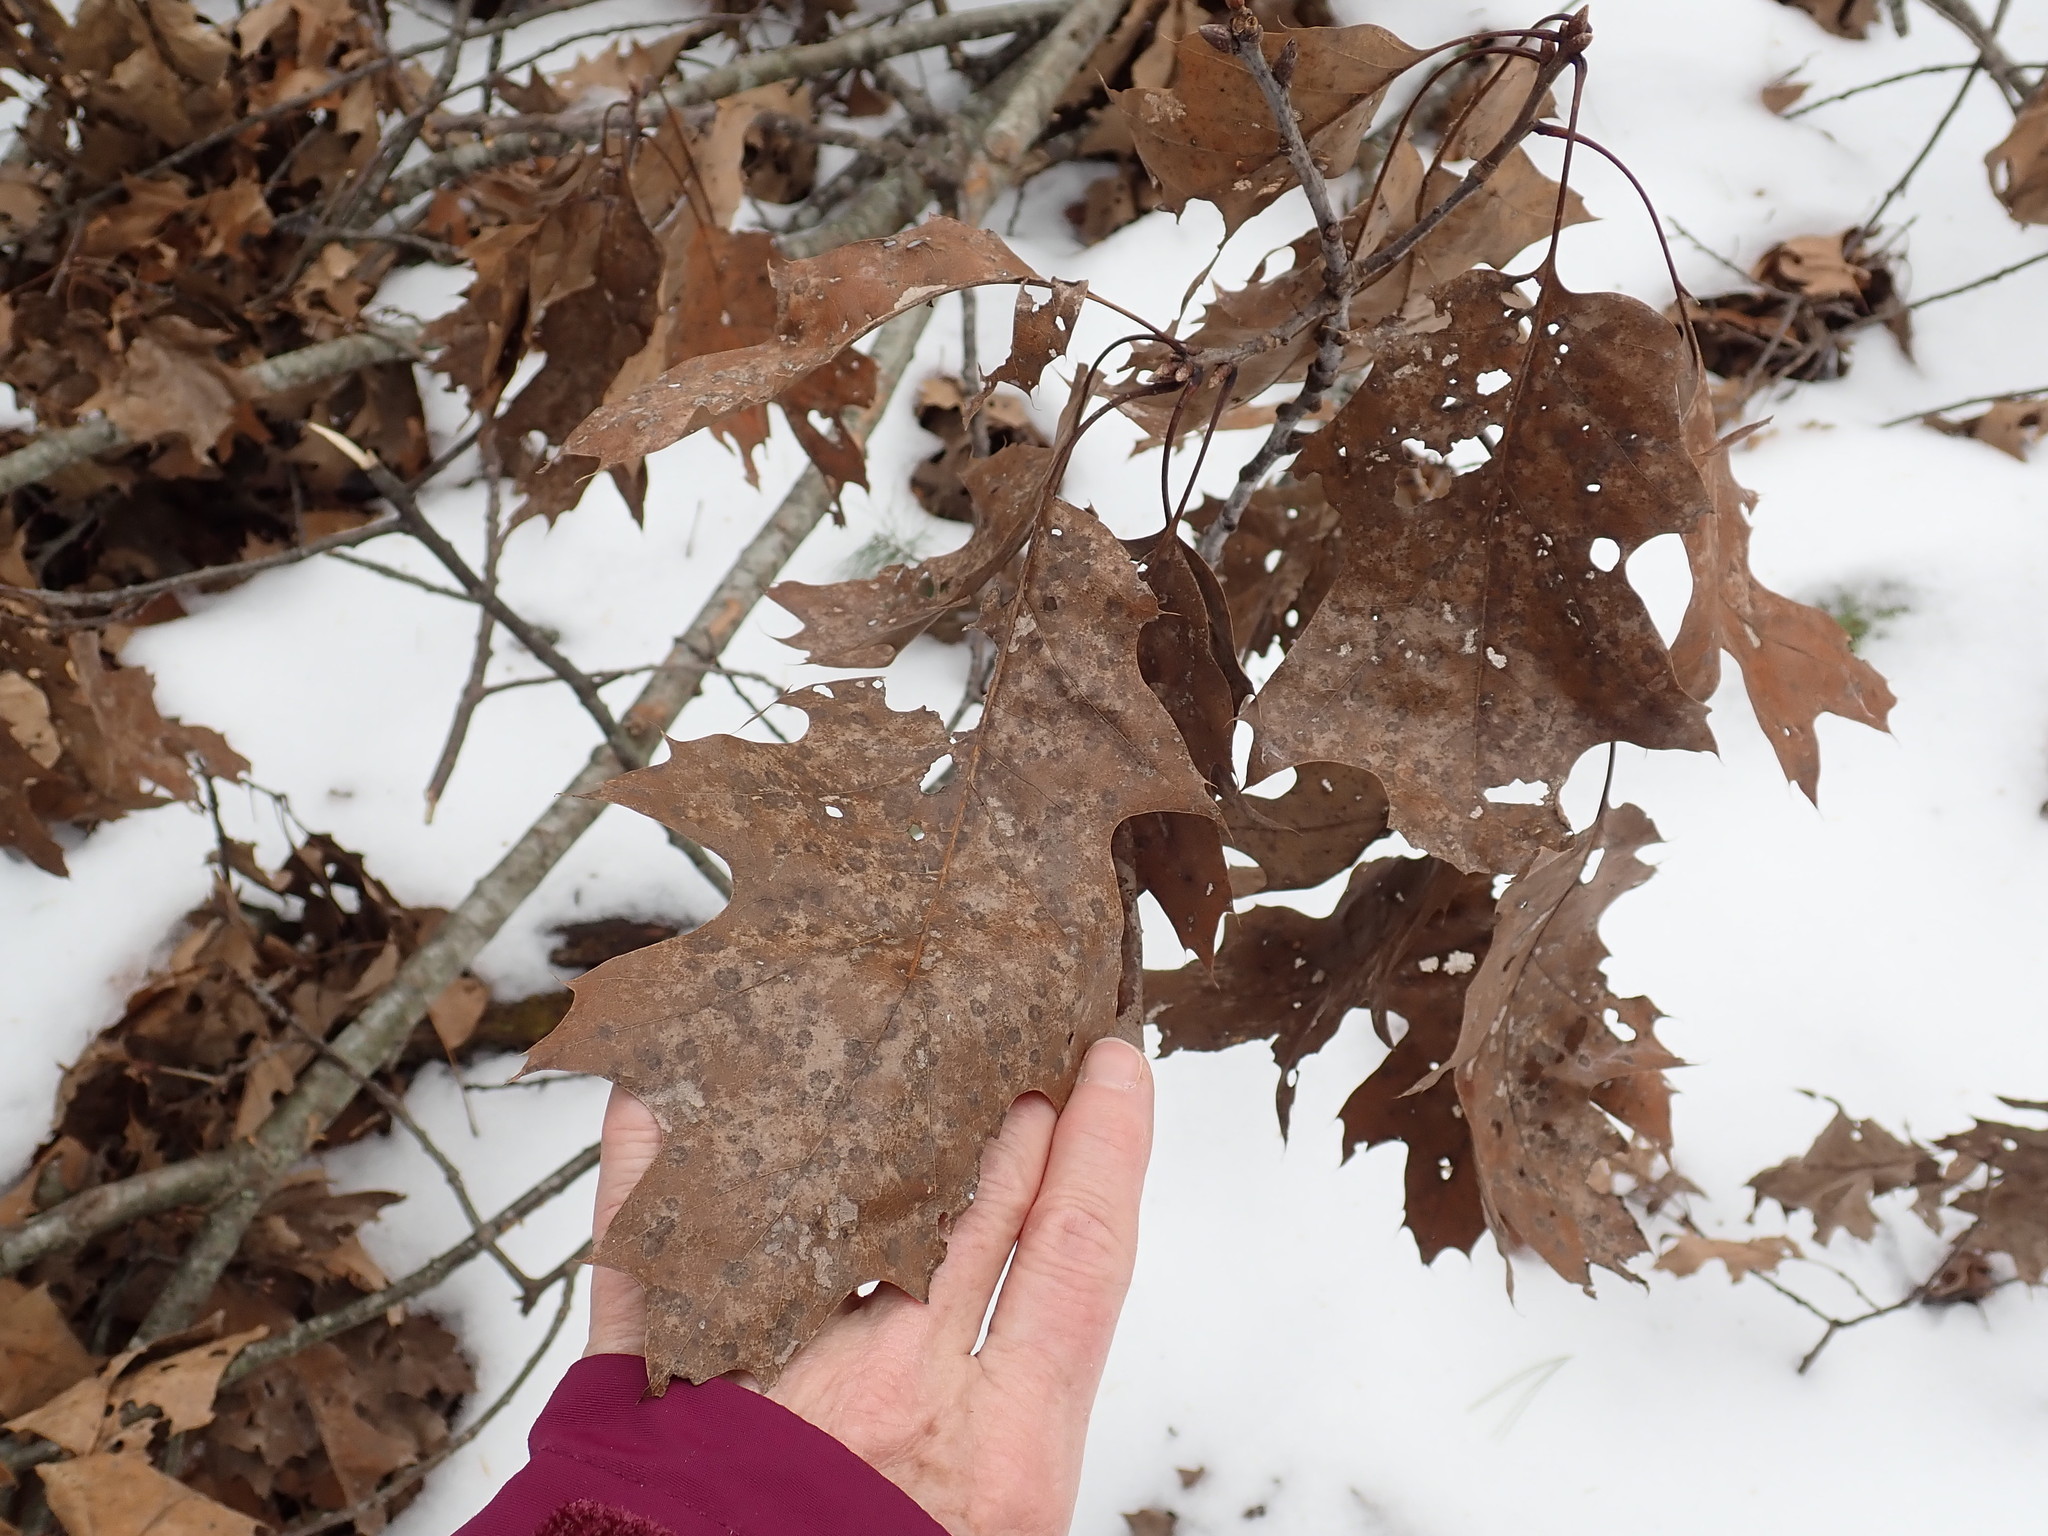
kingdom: Plantae
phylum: Tracheophyta
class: Magnoliopsida
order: Fagales
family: Fagaceae
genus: Quercus
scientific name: Quercus rubra
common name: Red oak
